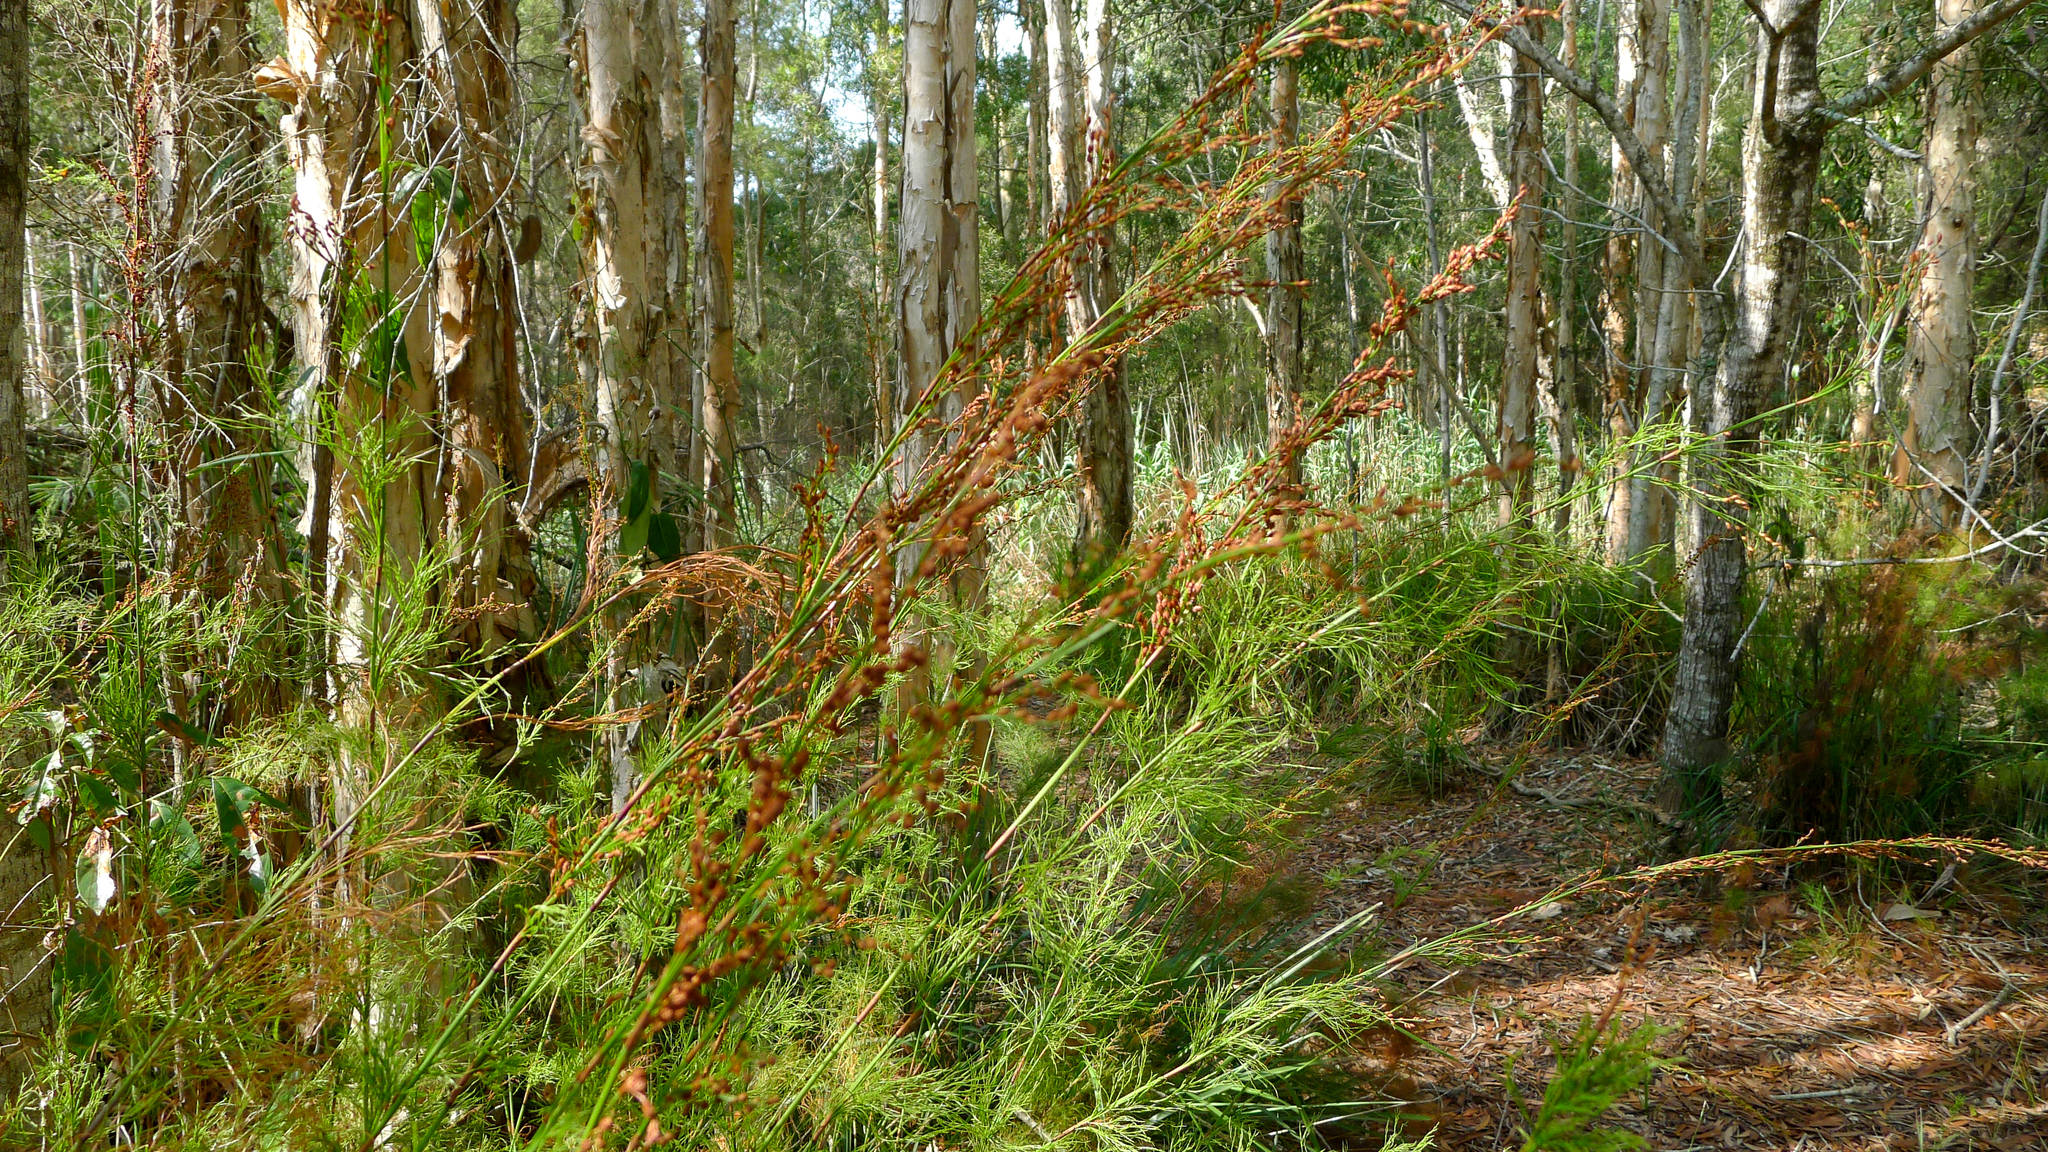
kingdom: Plantae
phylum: Tracheophyta
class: Liliopsida
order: Poales
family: Restionaceae
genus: Baloskion
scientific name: Baloskion tetraphyllum
